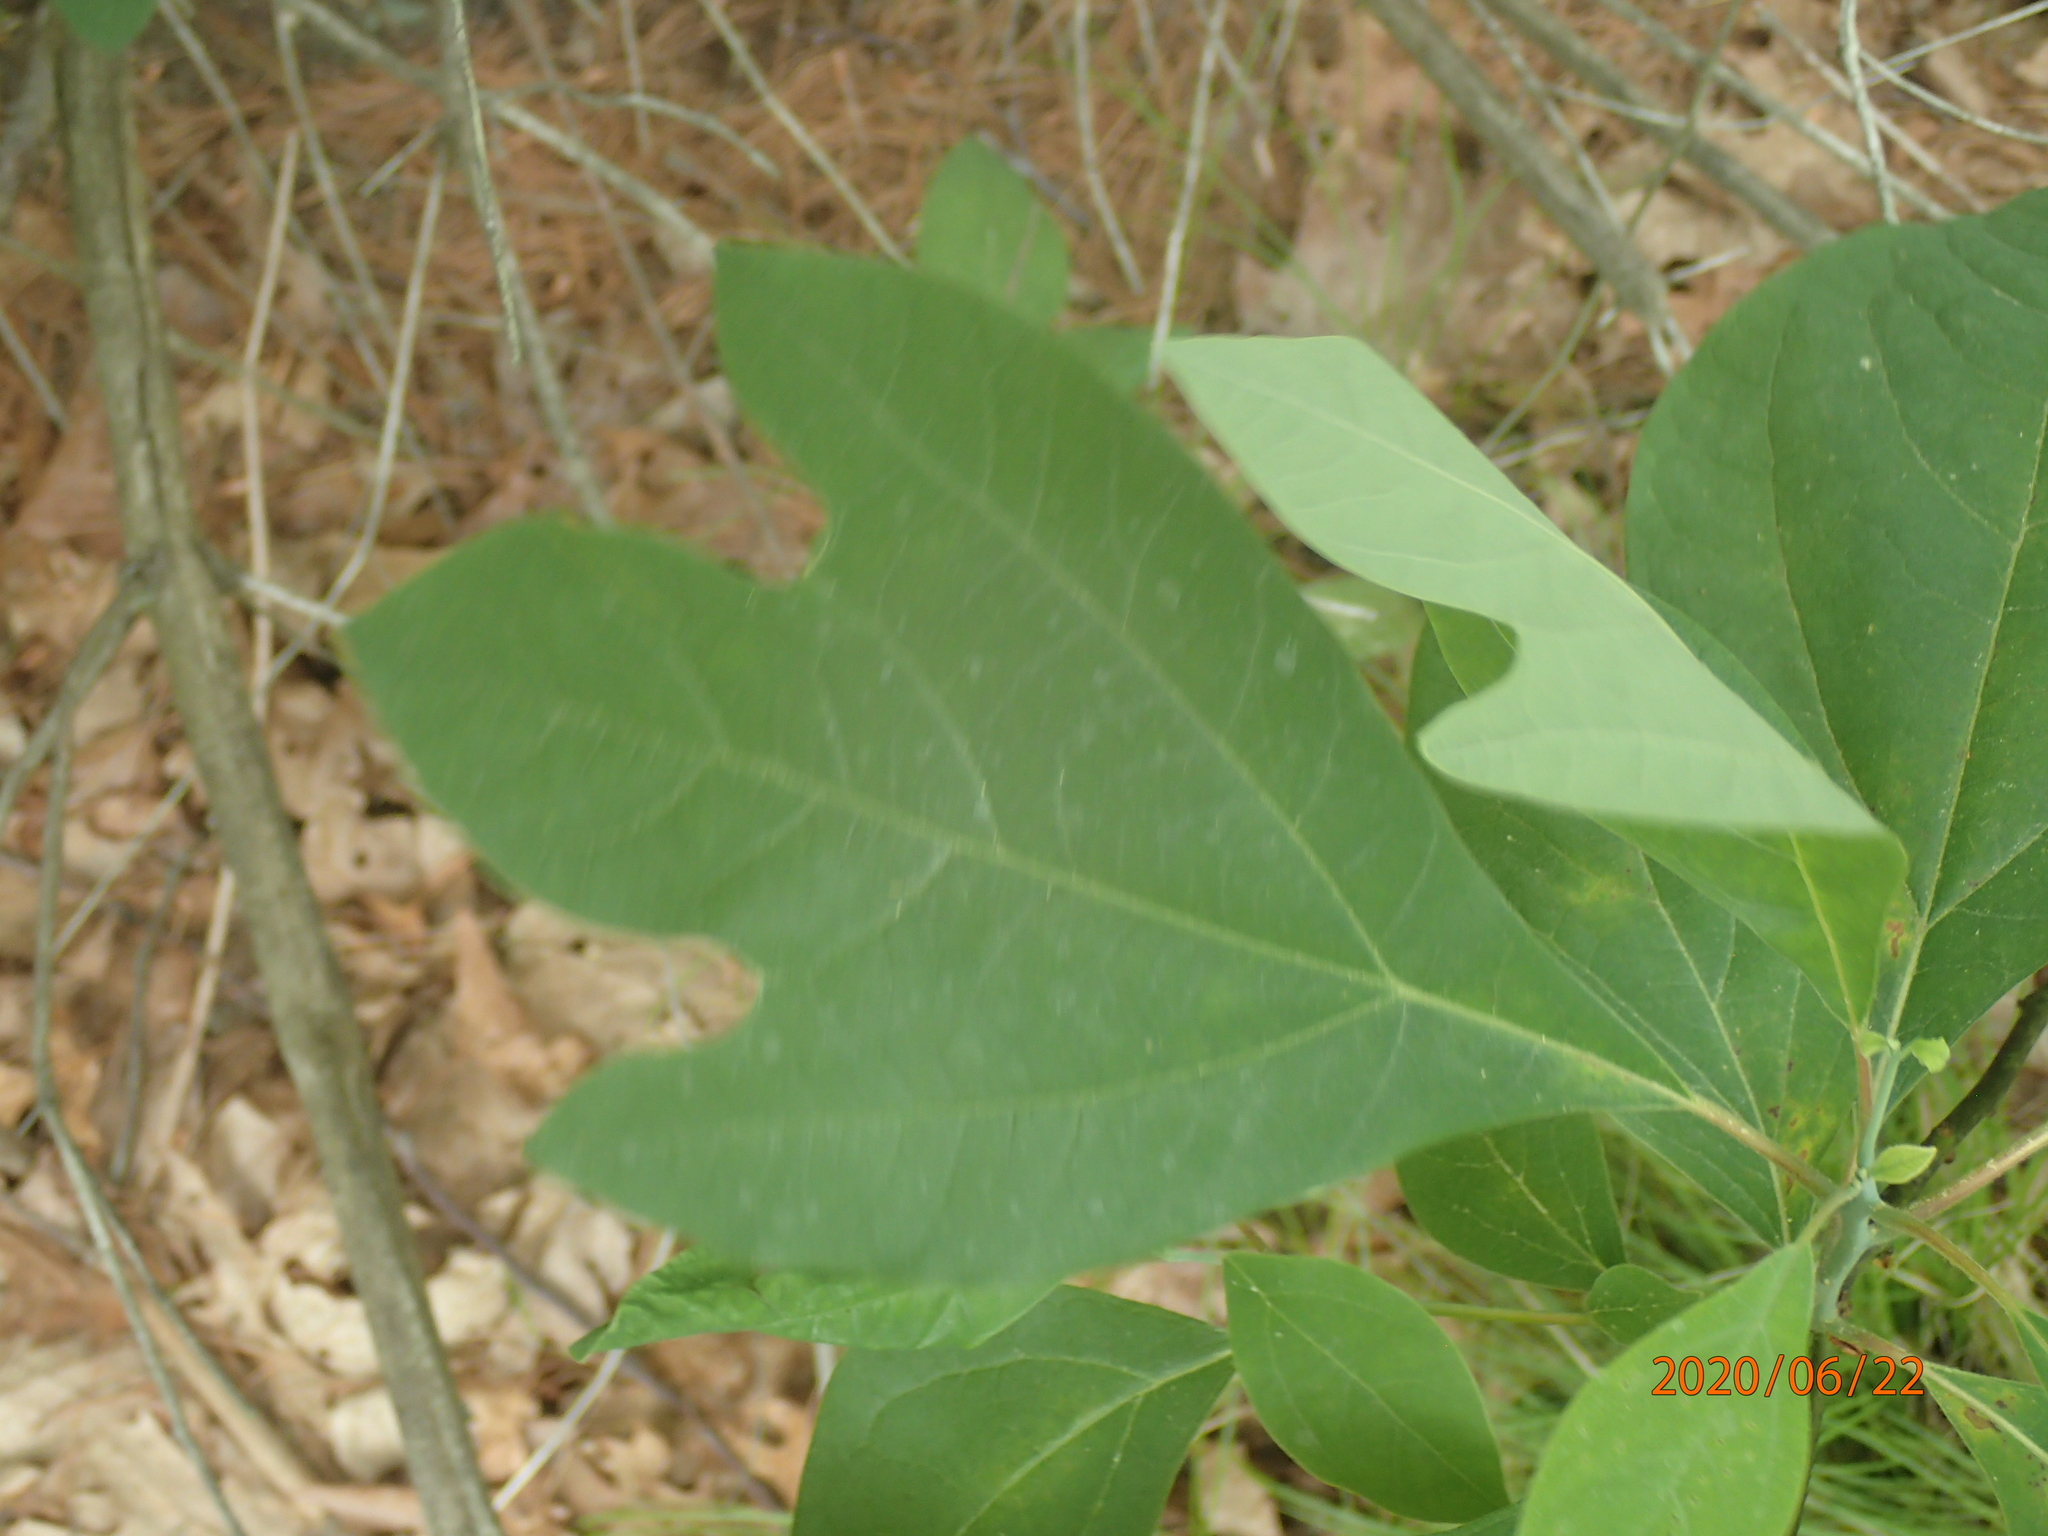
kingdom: Plantae
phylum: Tracheophyta
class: Magnoliopsida
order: Laurales
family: Lauraceae
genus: Sassafras
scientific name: Sassafras albidum
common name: Sassafras
